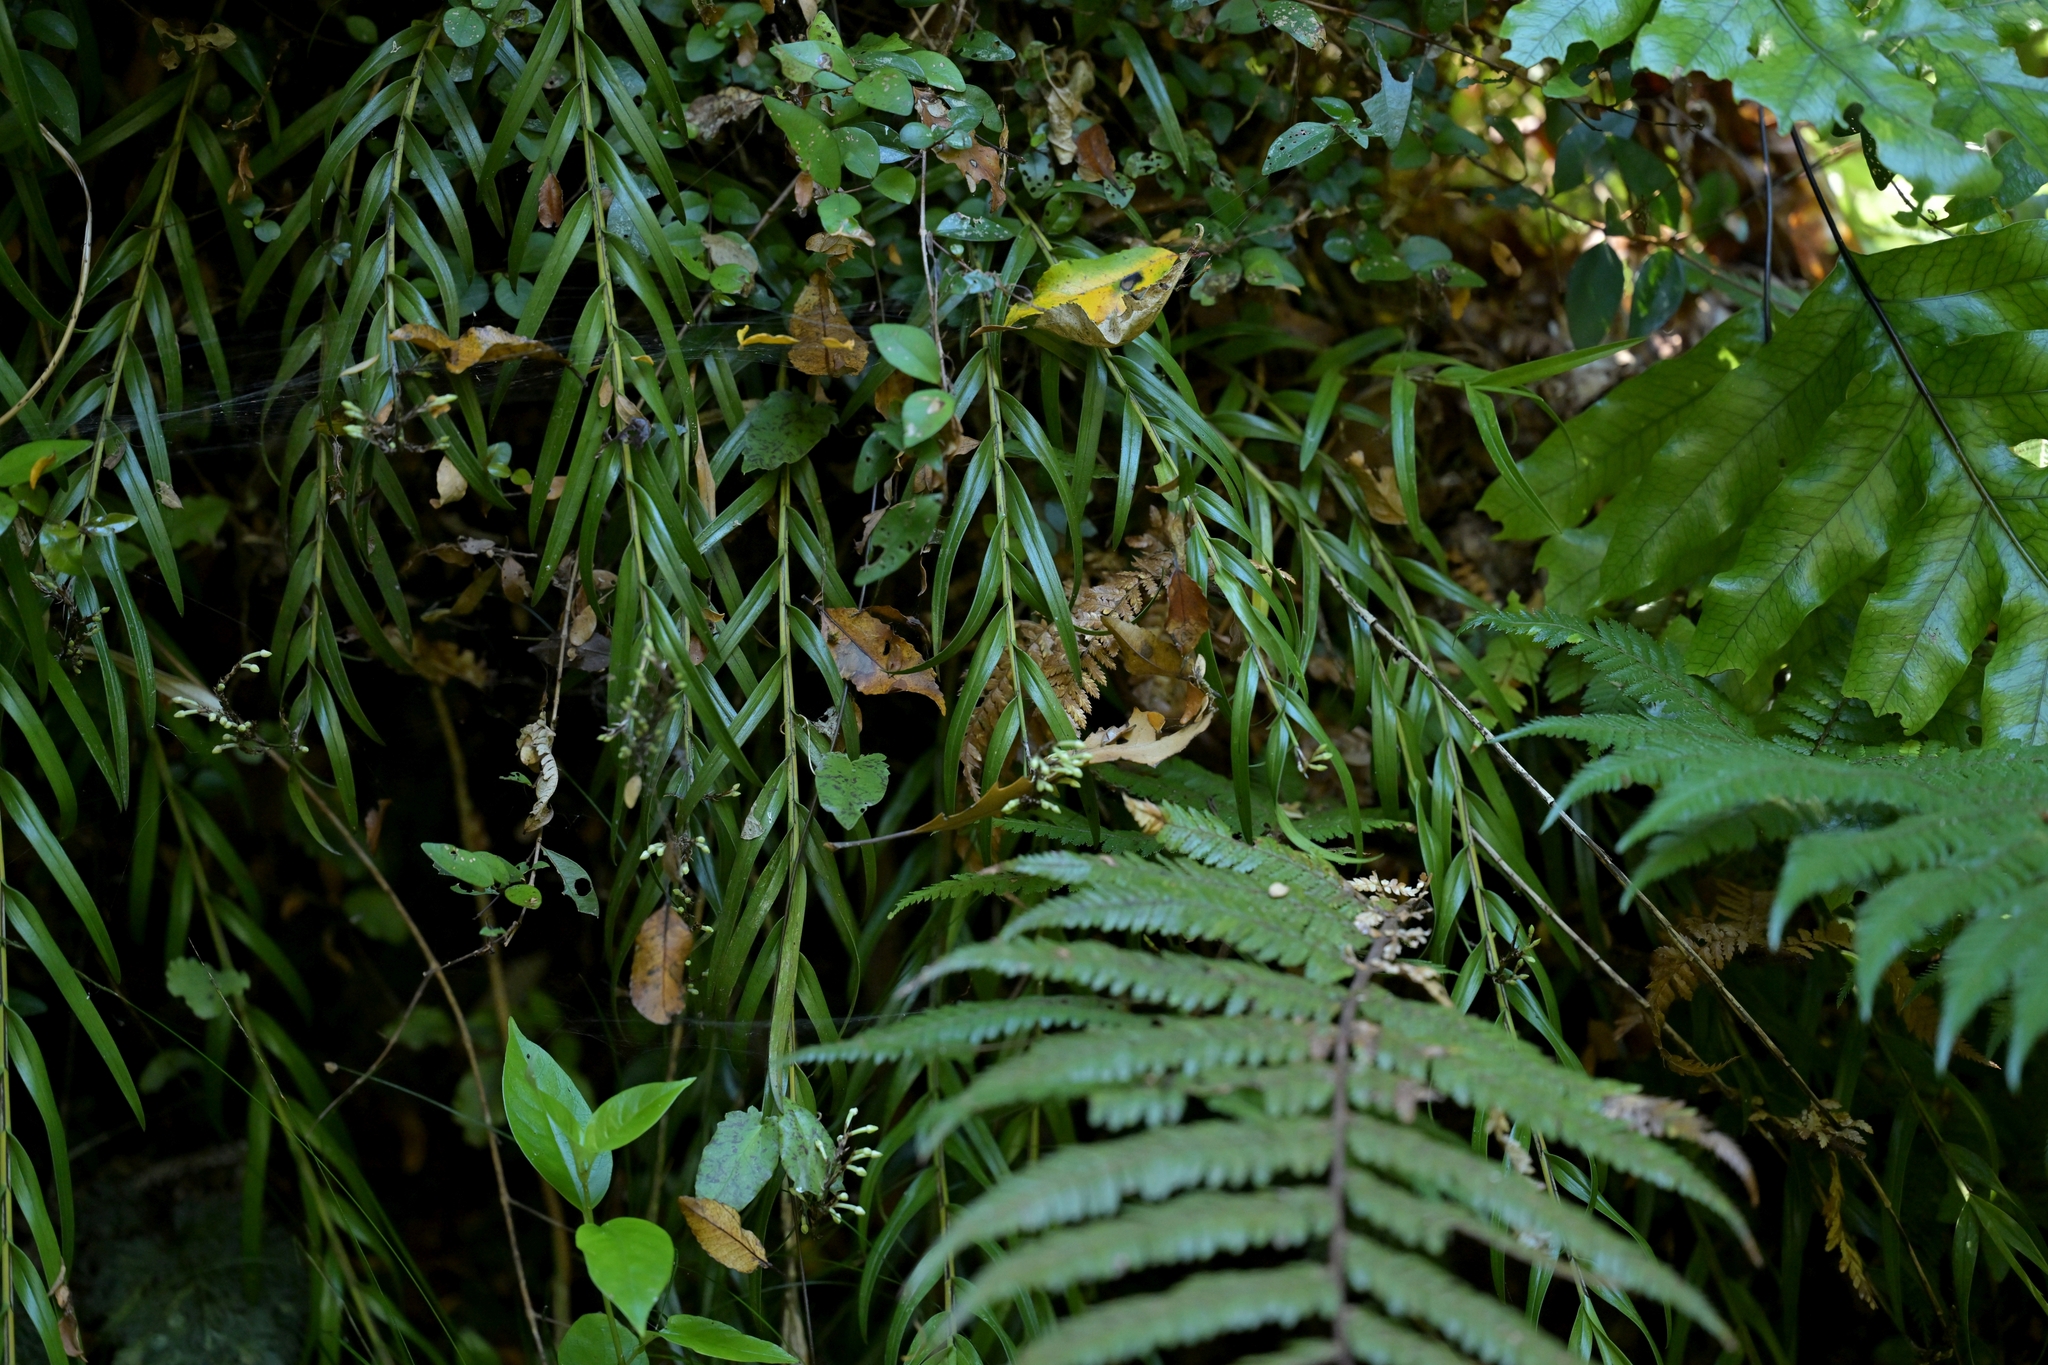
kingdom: Plantae
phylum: Tracheophyta
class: Liliopsida
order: Asparagales
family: Orchidaceae
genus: Earina
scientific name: Earina autumnalis
